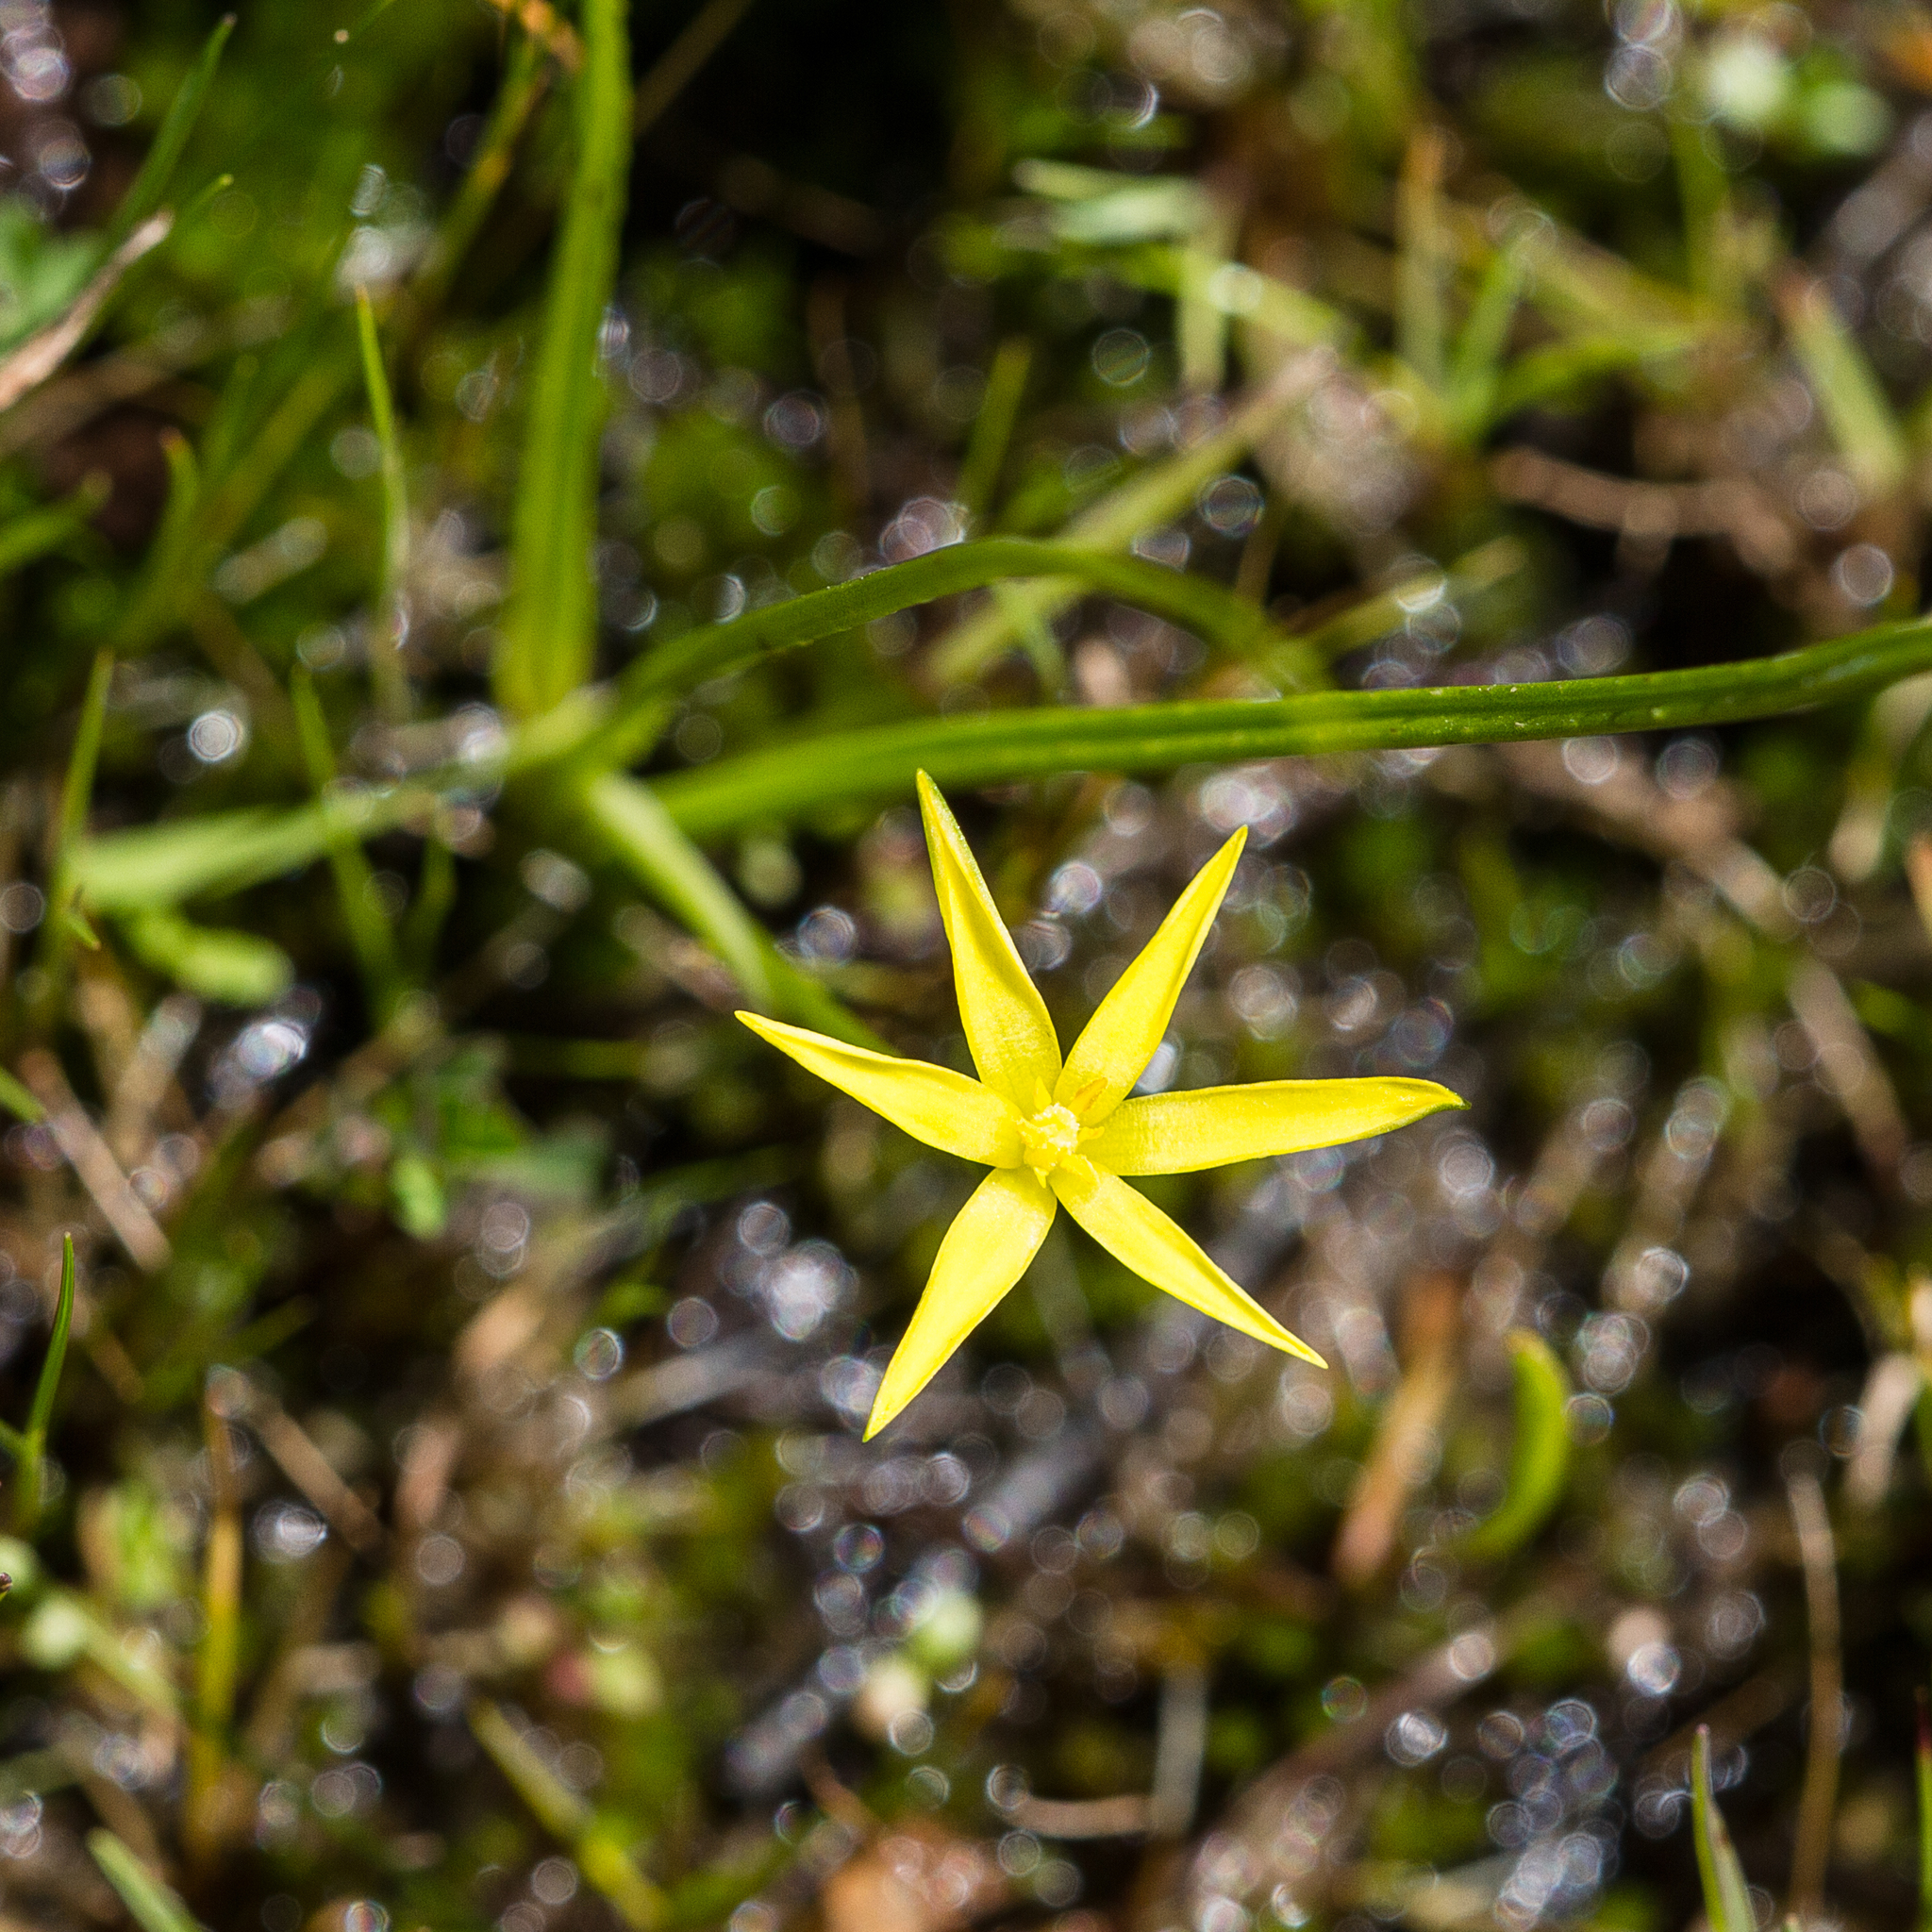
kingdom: Plantae
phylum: Tracheophyta
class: Liliopsida
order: Asparagales
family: Hypoxidaceae
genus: Pauridia
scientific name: Pauridia glabella
